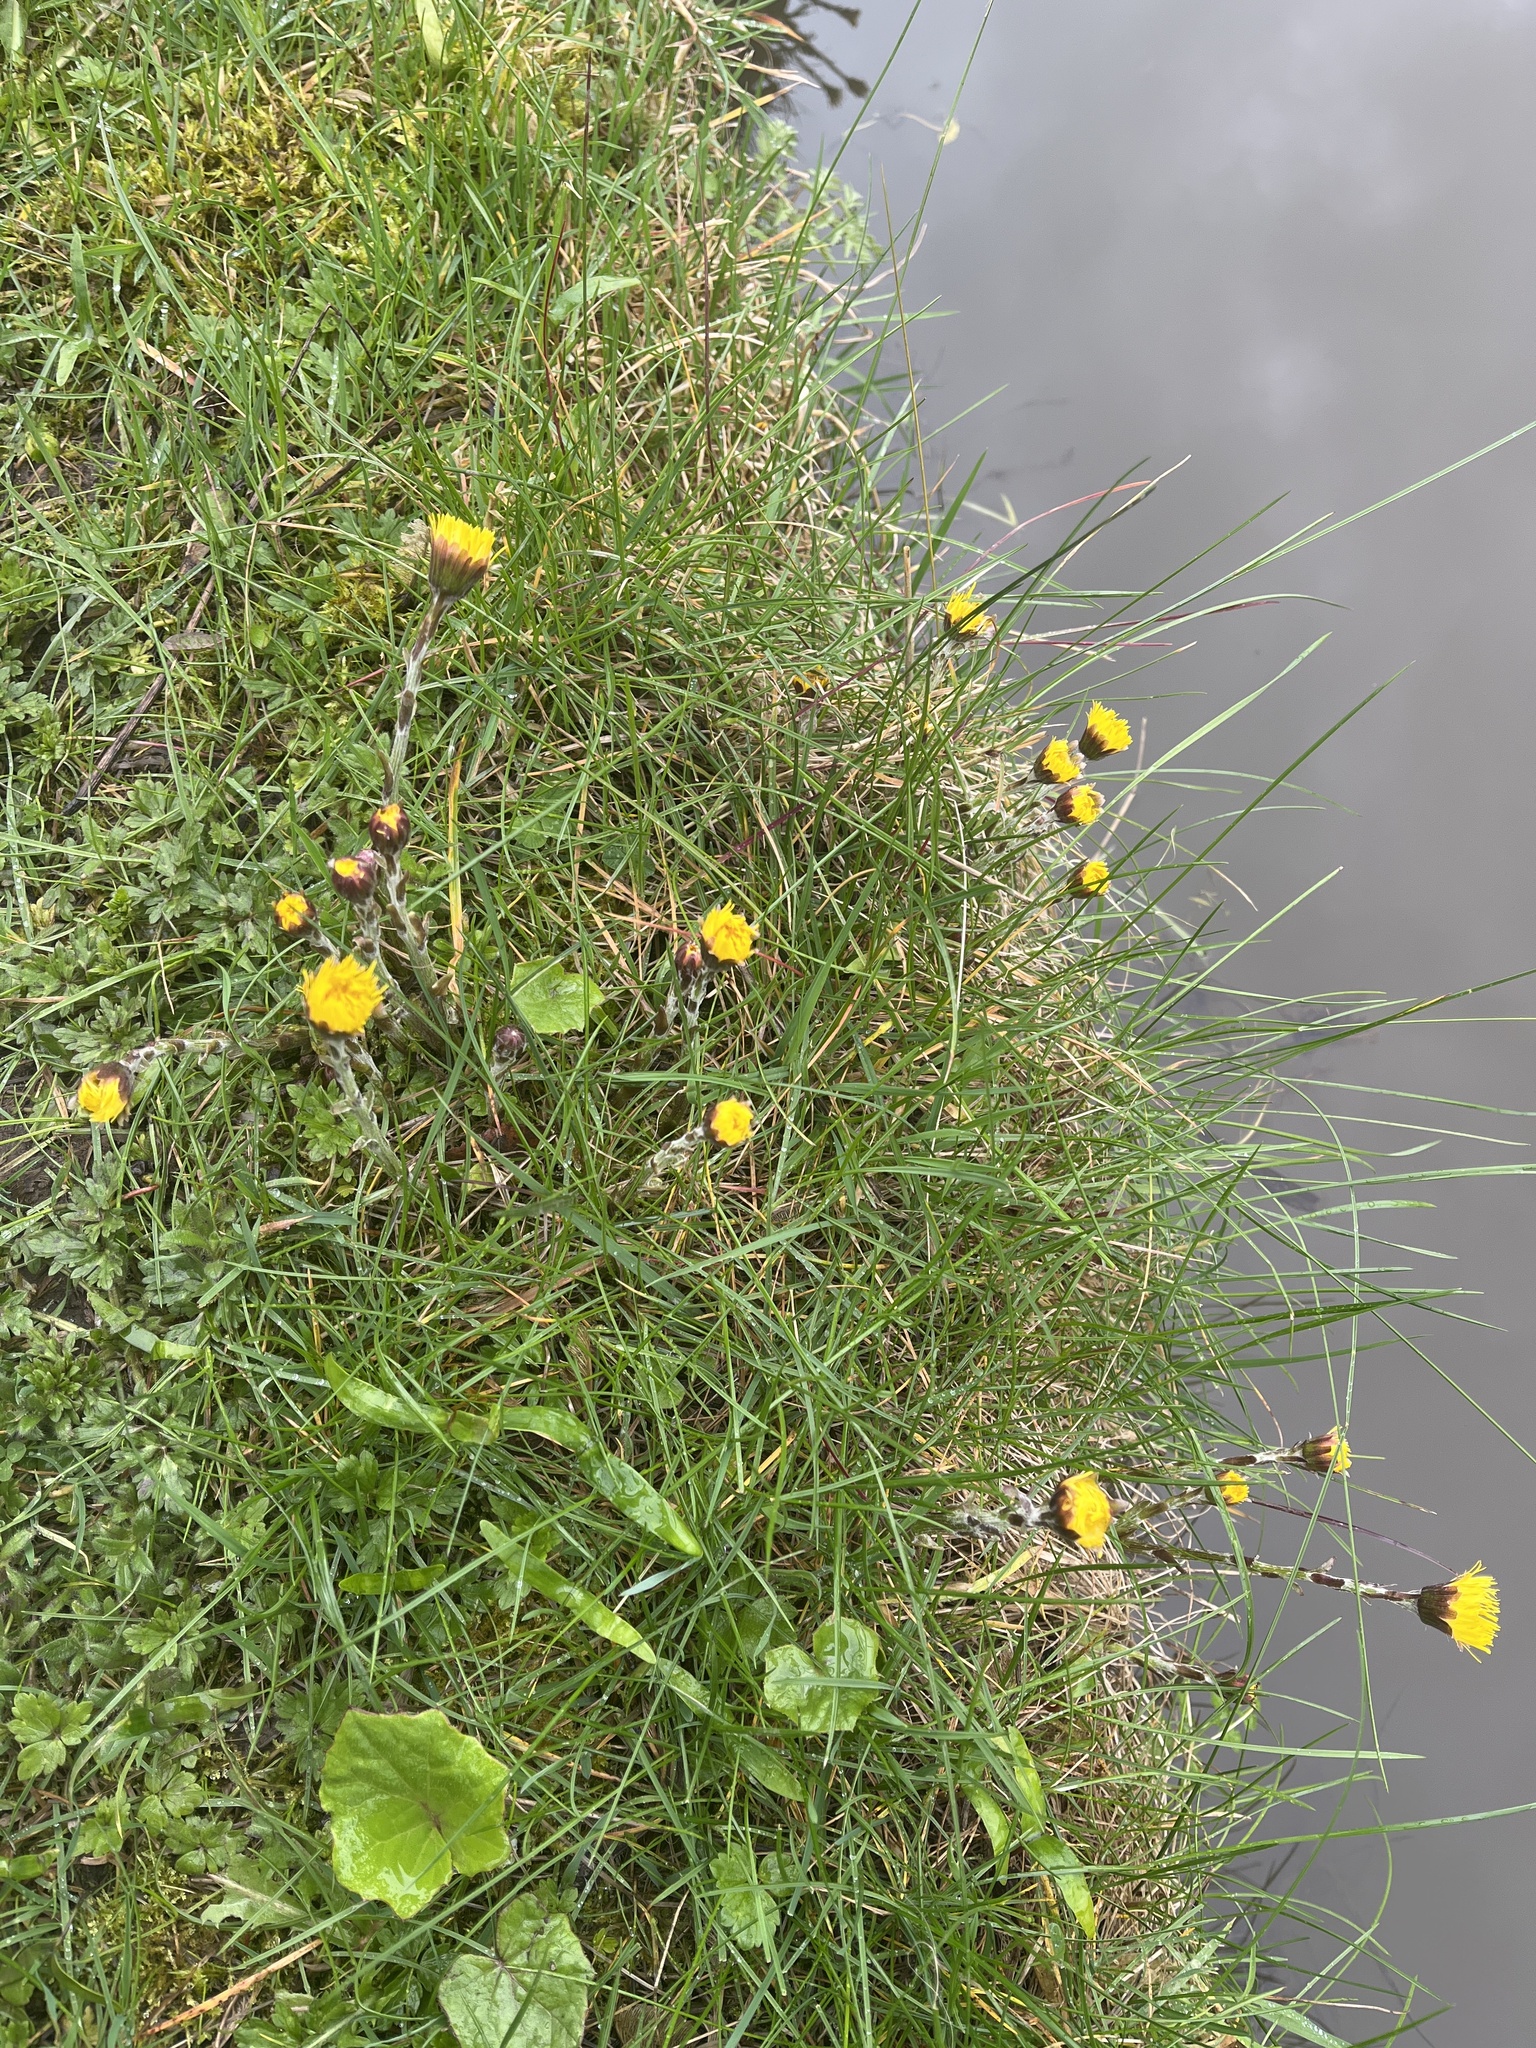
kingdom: Plantae
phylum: Tracheophyta
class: Magnoliopsida
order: Asterales
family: Asteraceae
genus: Tussilago
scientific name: Tussilago farfara
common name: Coltsfoot
